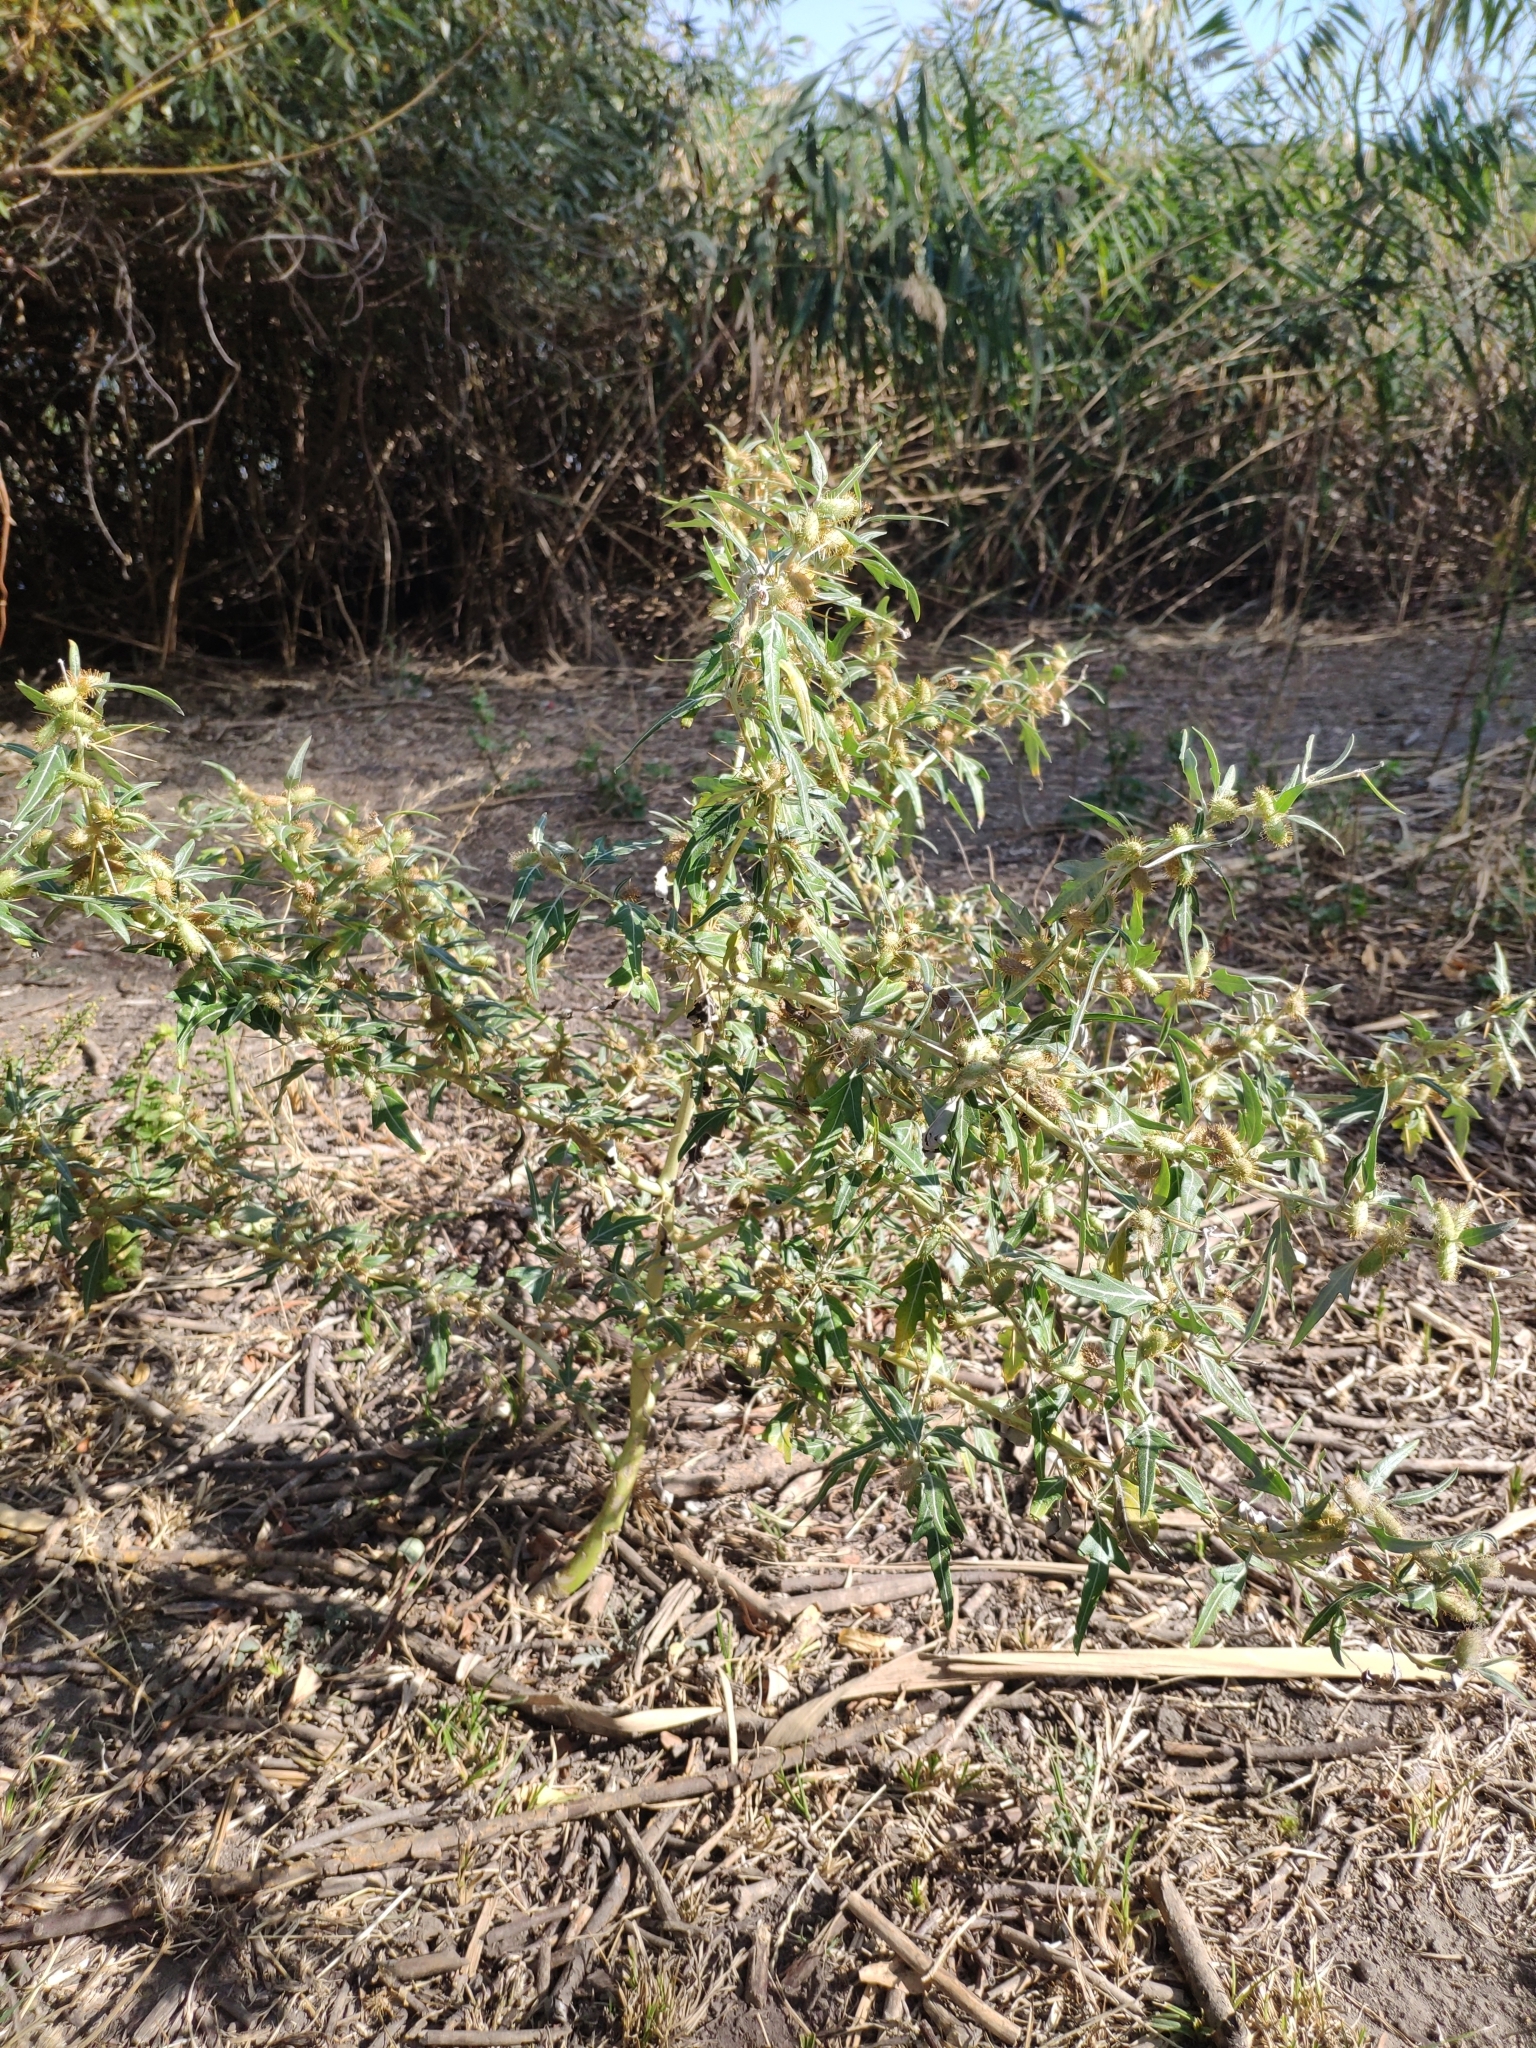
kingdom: Plantae
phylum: Tracheophyta
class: Magnoliopsida
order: Asterales
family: Asteraceae
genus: Xanthium
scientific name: Xanthium spinosum
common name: Spiny cocklebur
